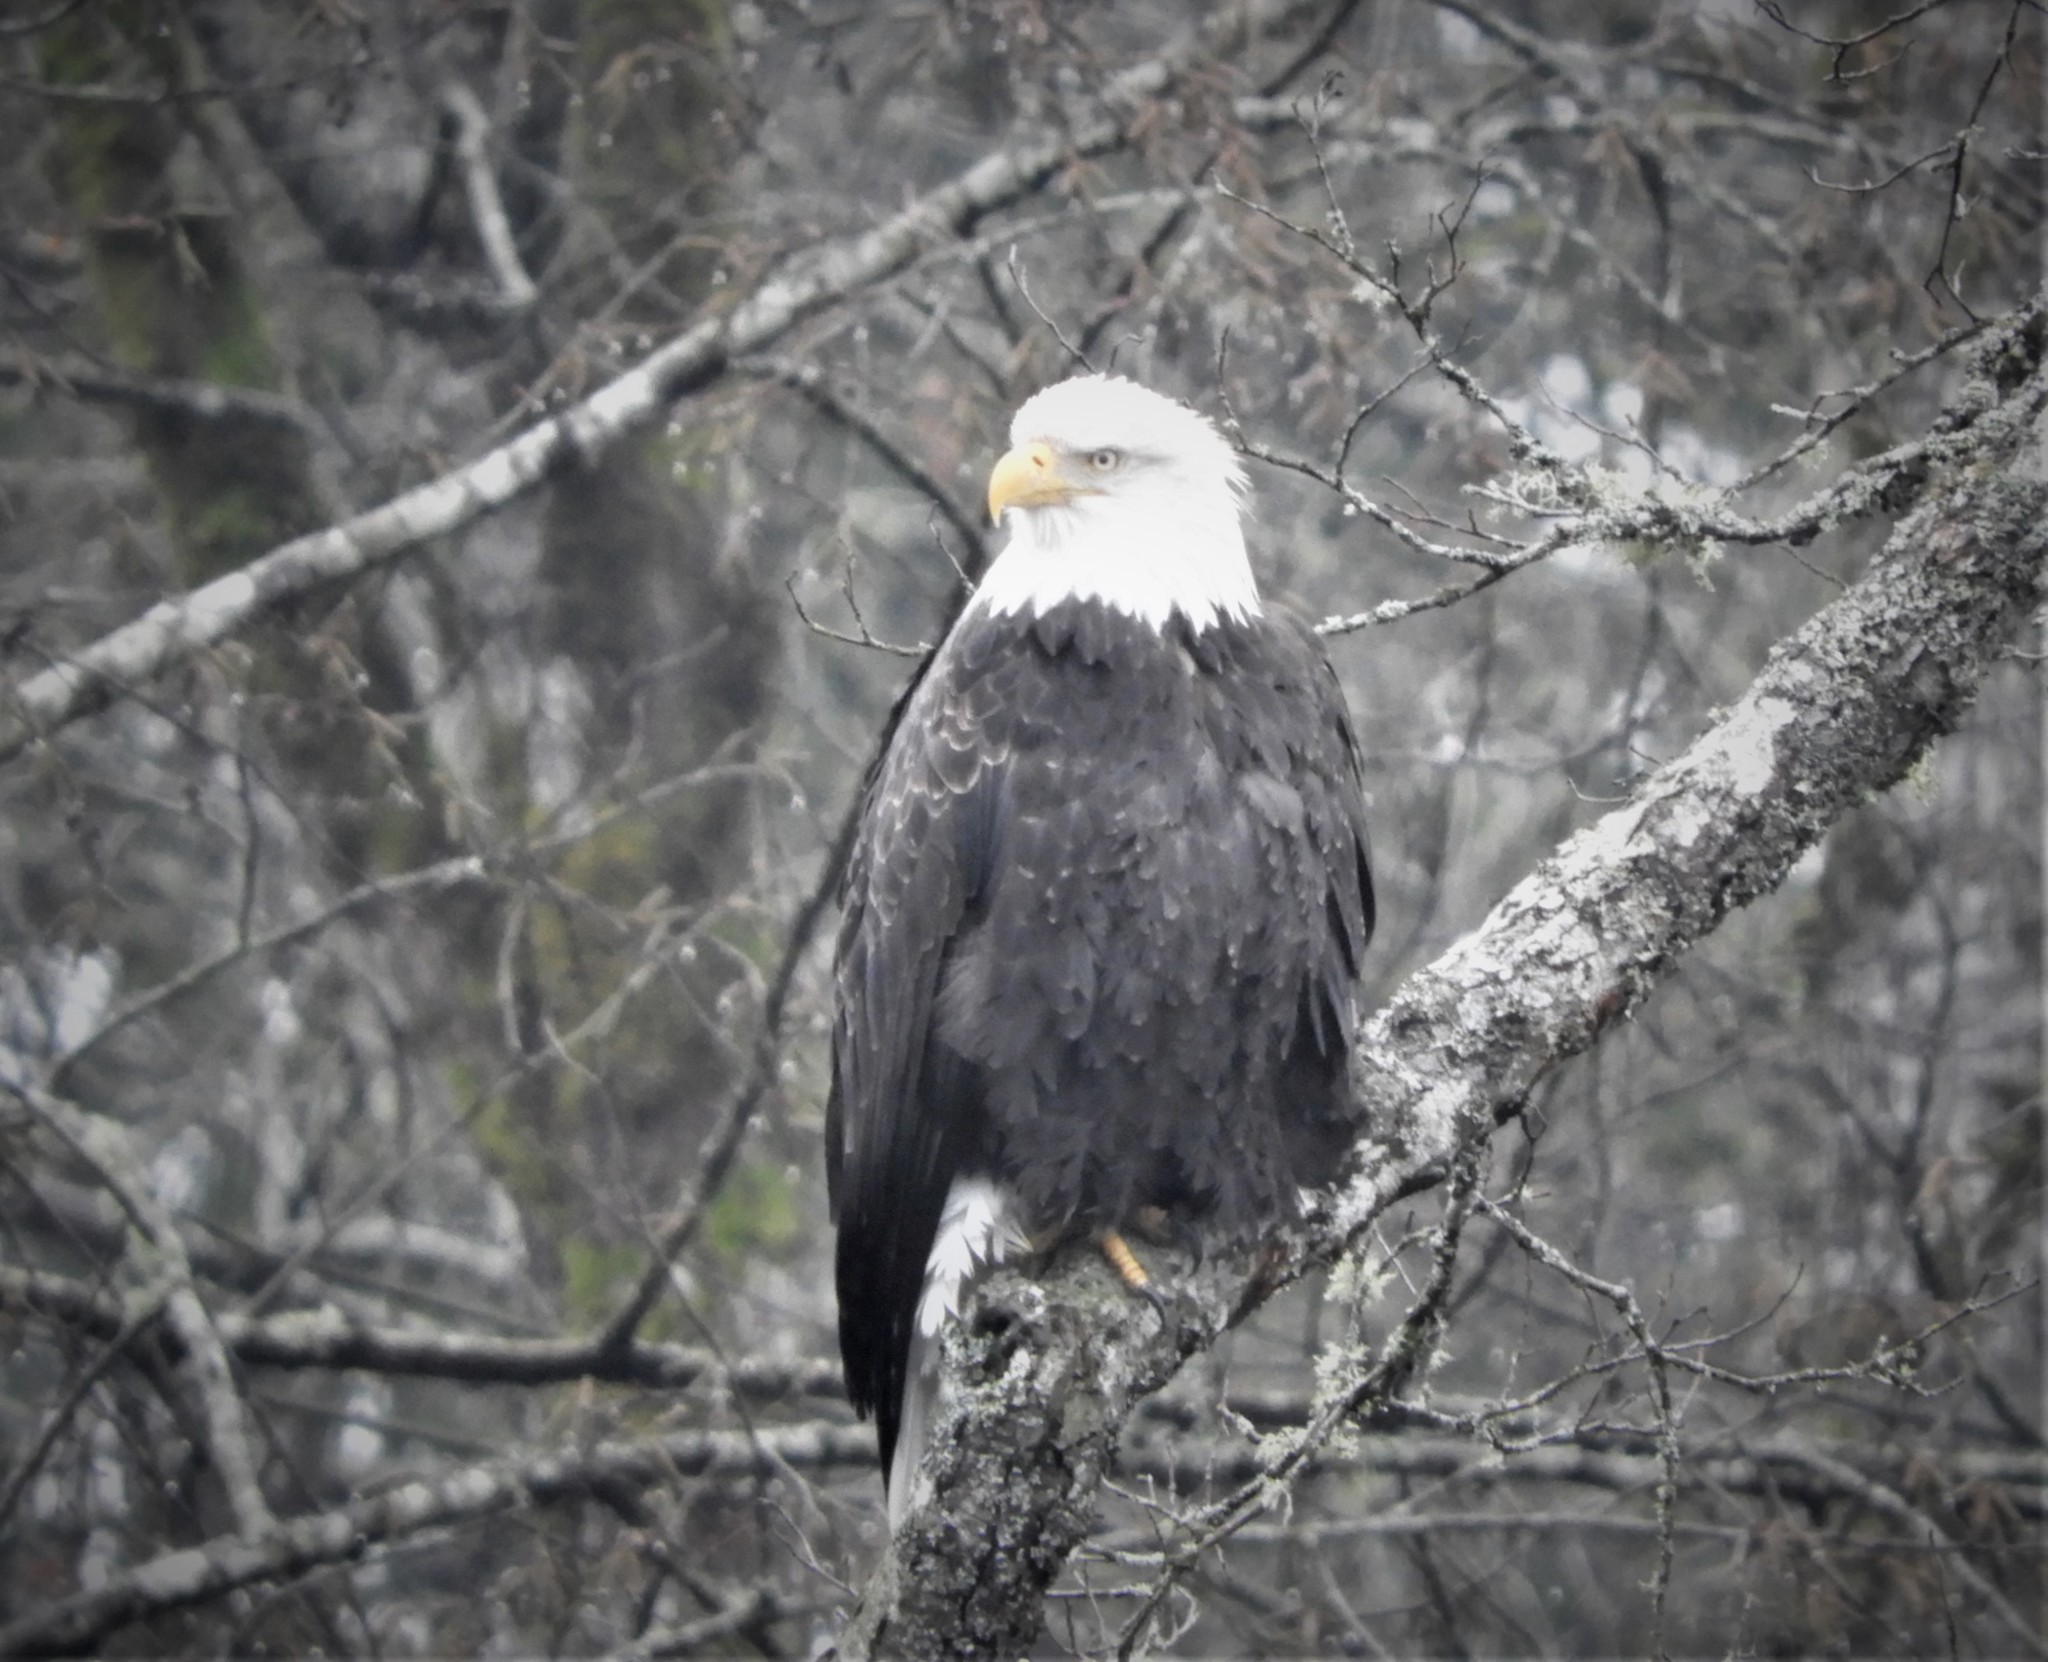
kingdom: Animalia
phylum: Chordata
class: Aves
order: Accipitriformes
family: Accipitridae
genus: Haliaeetus
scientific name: Haliaeetus leucocephalus
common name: Bald eagle
